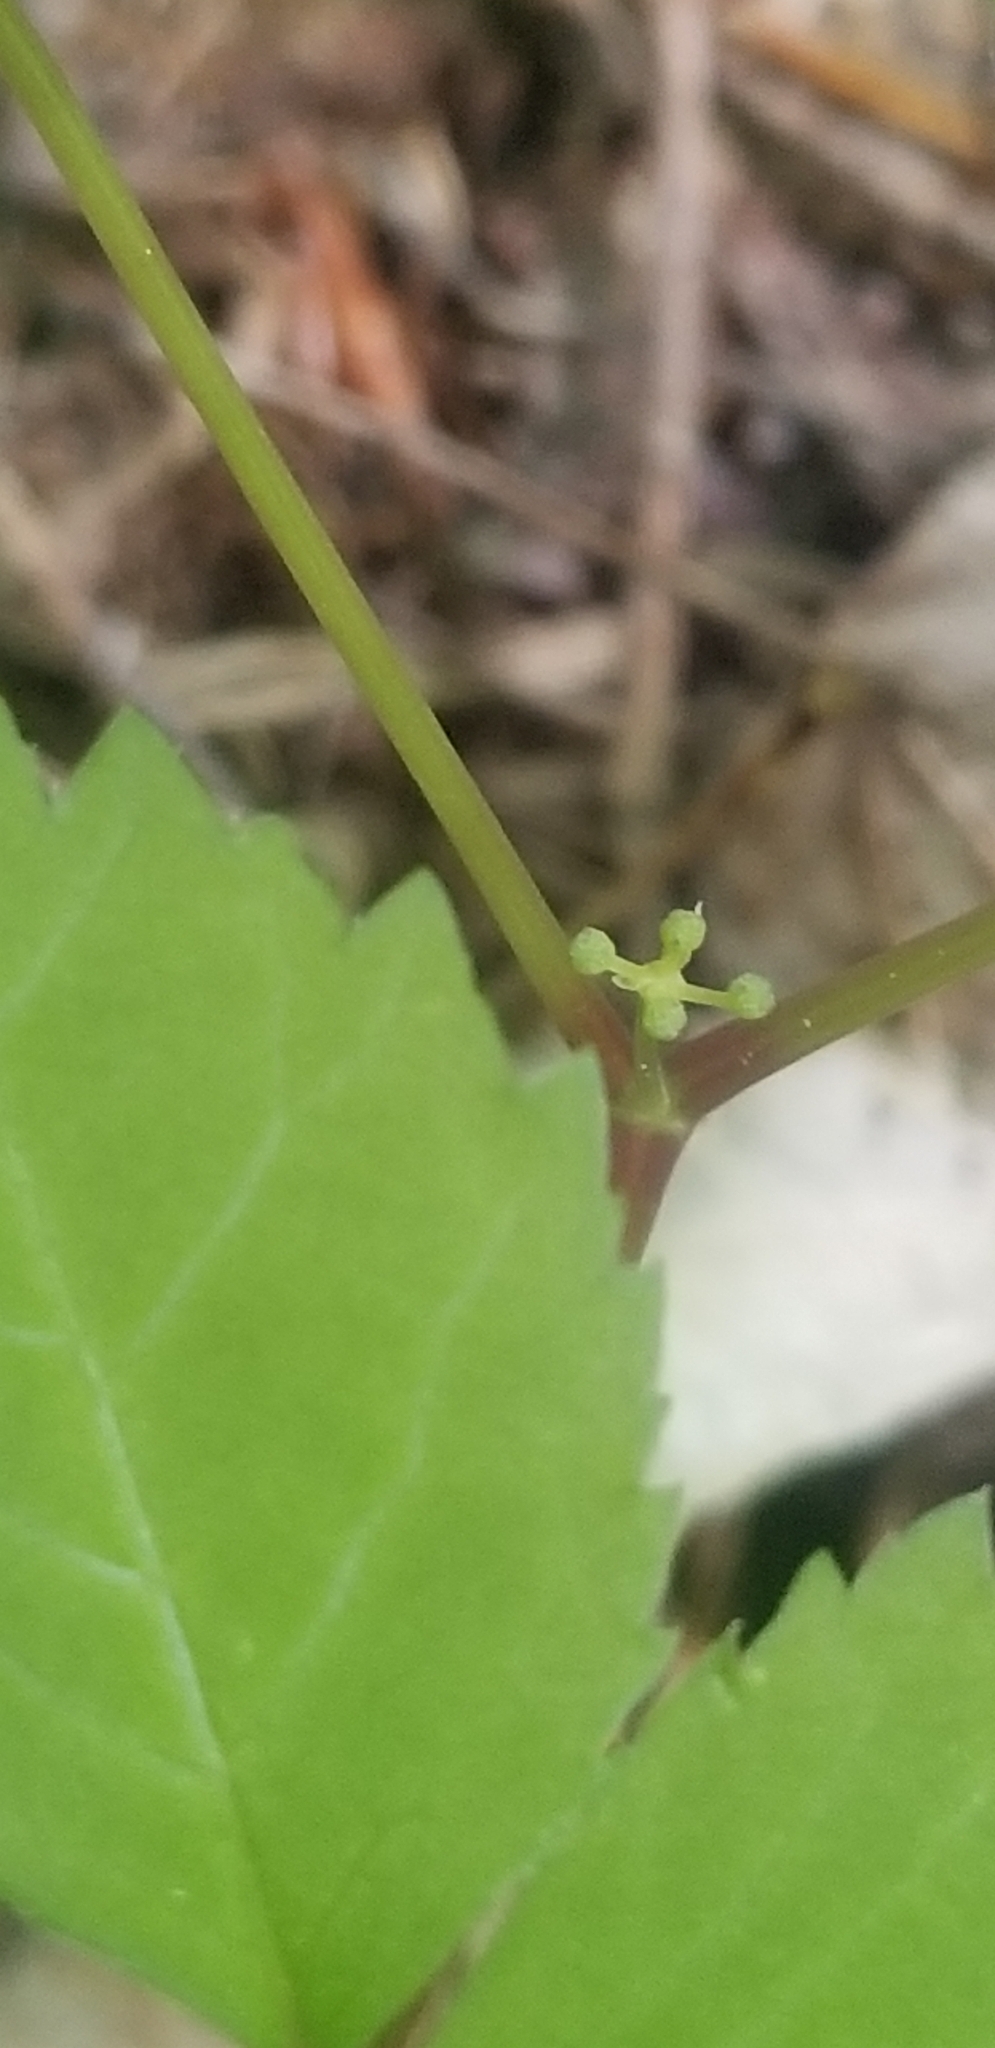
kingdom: Plantae
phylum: Tracheophyta
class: Magnoliopsida
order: Apiales
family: Araliaceae
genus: Panax
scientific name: Panax quinquefolius
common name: American ginseng
